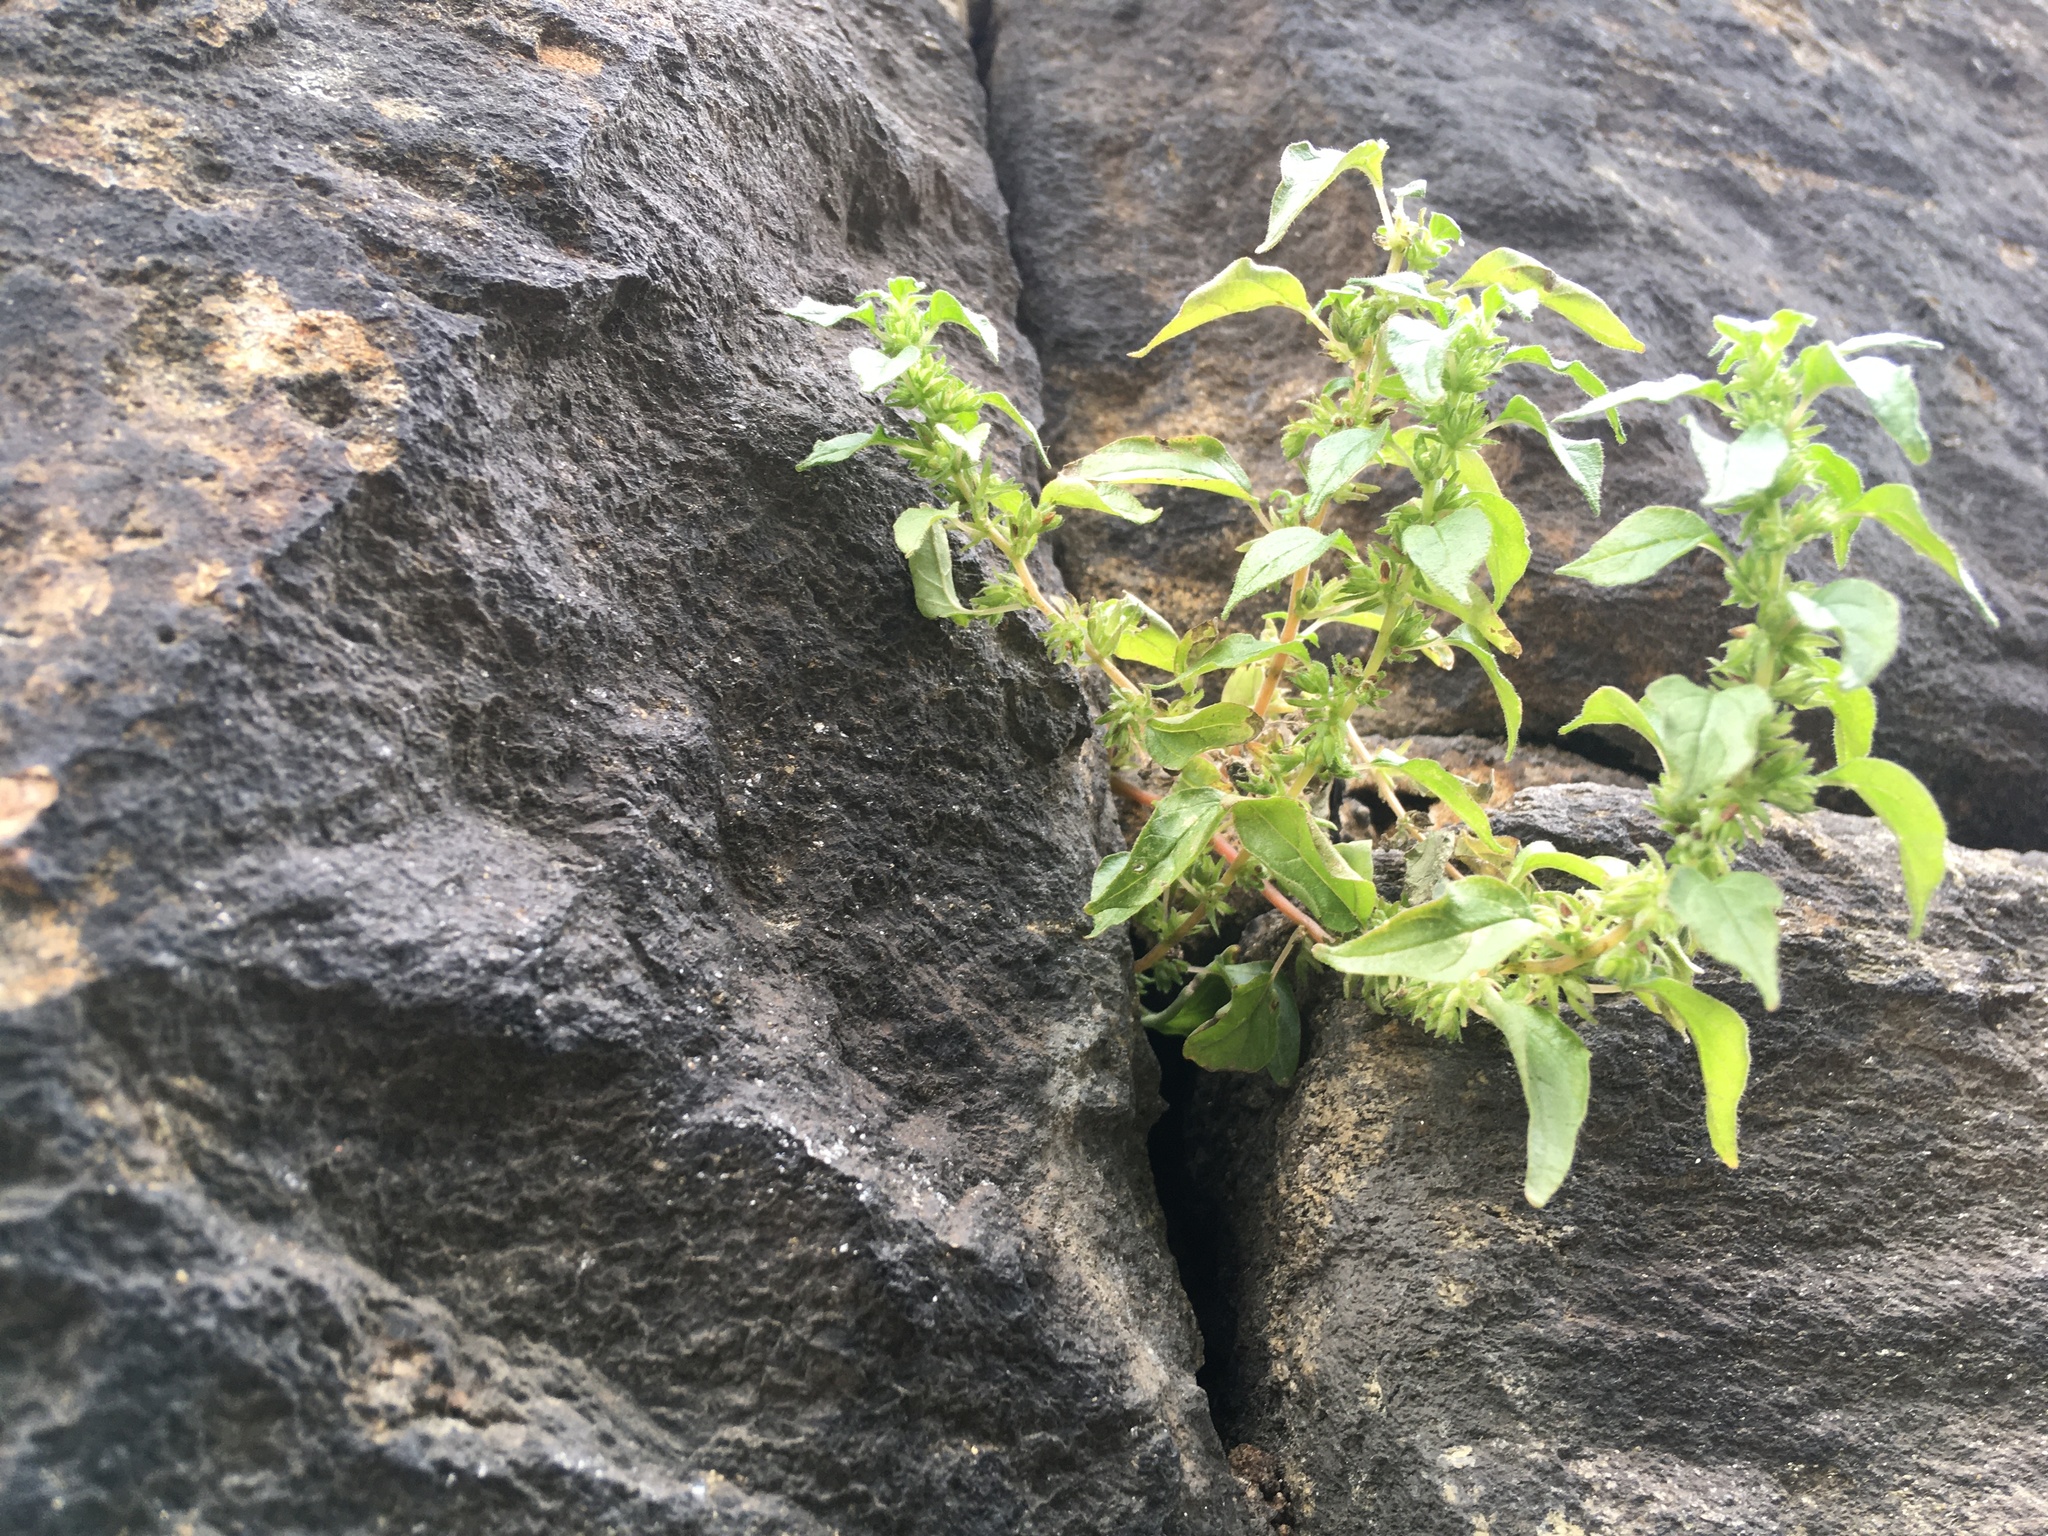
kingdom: Plantae
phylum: Tracheophyta
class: Magnoliopsida
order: Rosales
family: Urticaceae
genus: Parietaria
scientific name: Parietaria pensylvanica
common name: Pennsylvania pellitory
